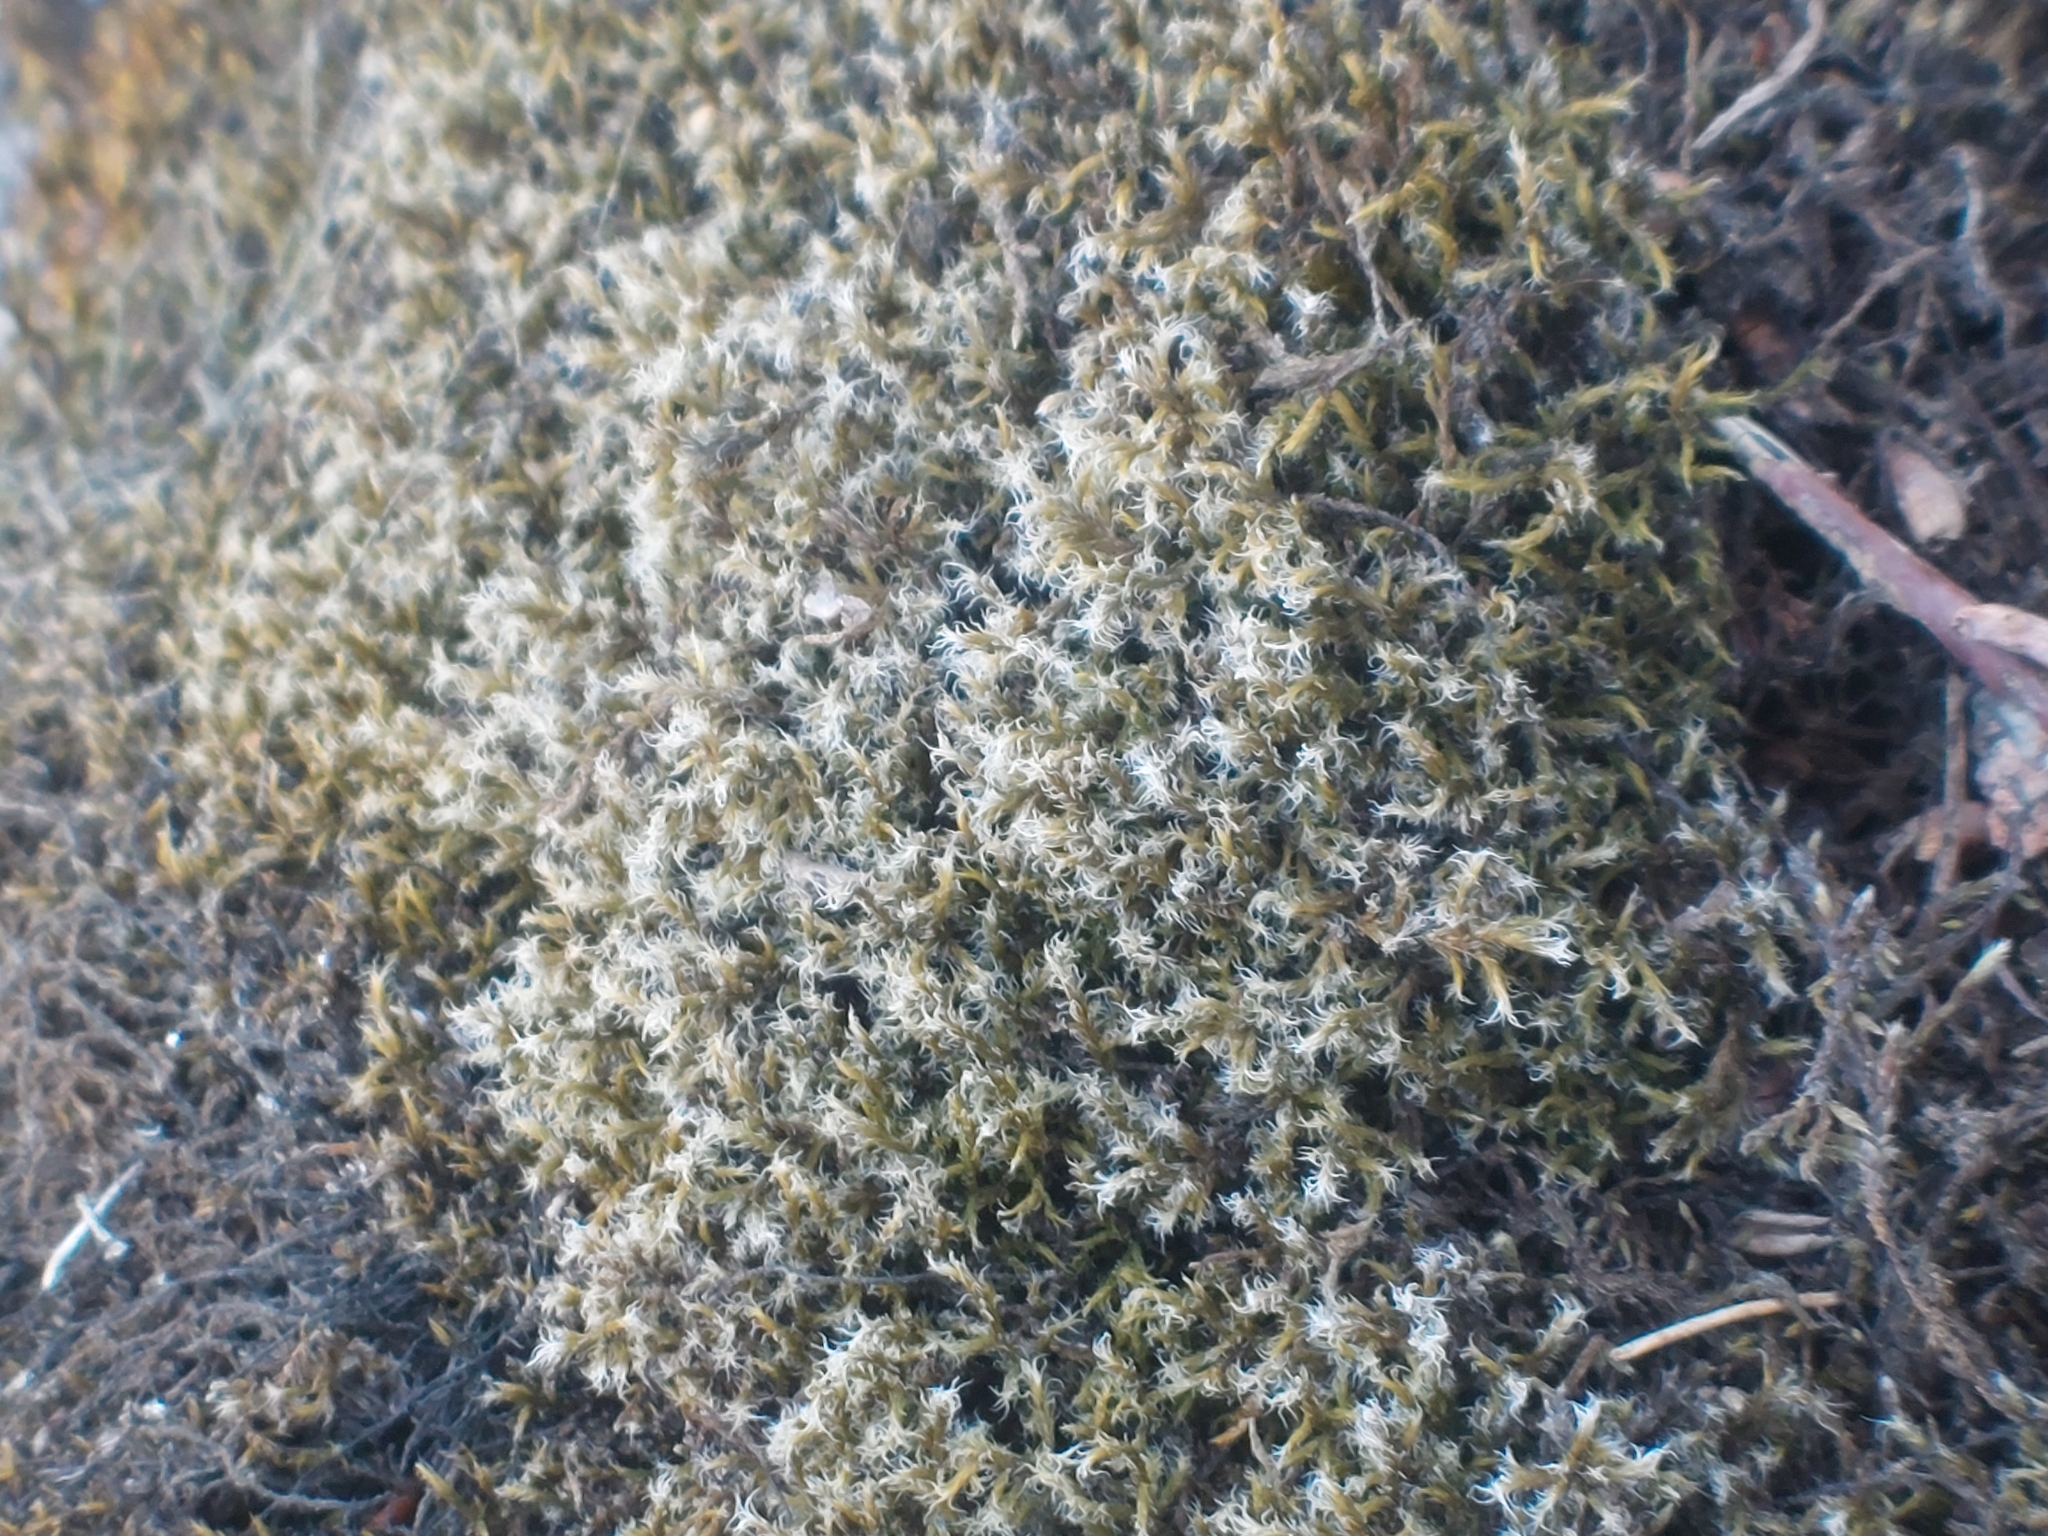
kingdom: Plantae
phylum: Bryophyta
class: Bryopsida
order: Grimmiales
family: Grimmiaceae
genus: Racomitrium
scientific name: Racomitrium lanuginosum
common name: Hoary rock moss
